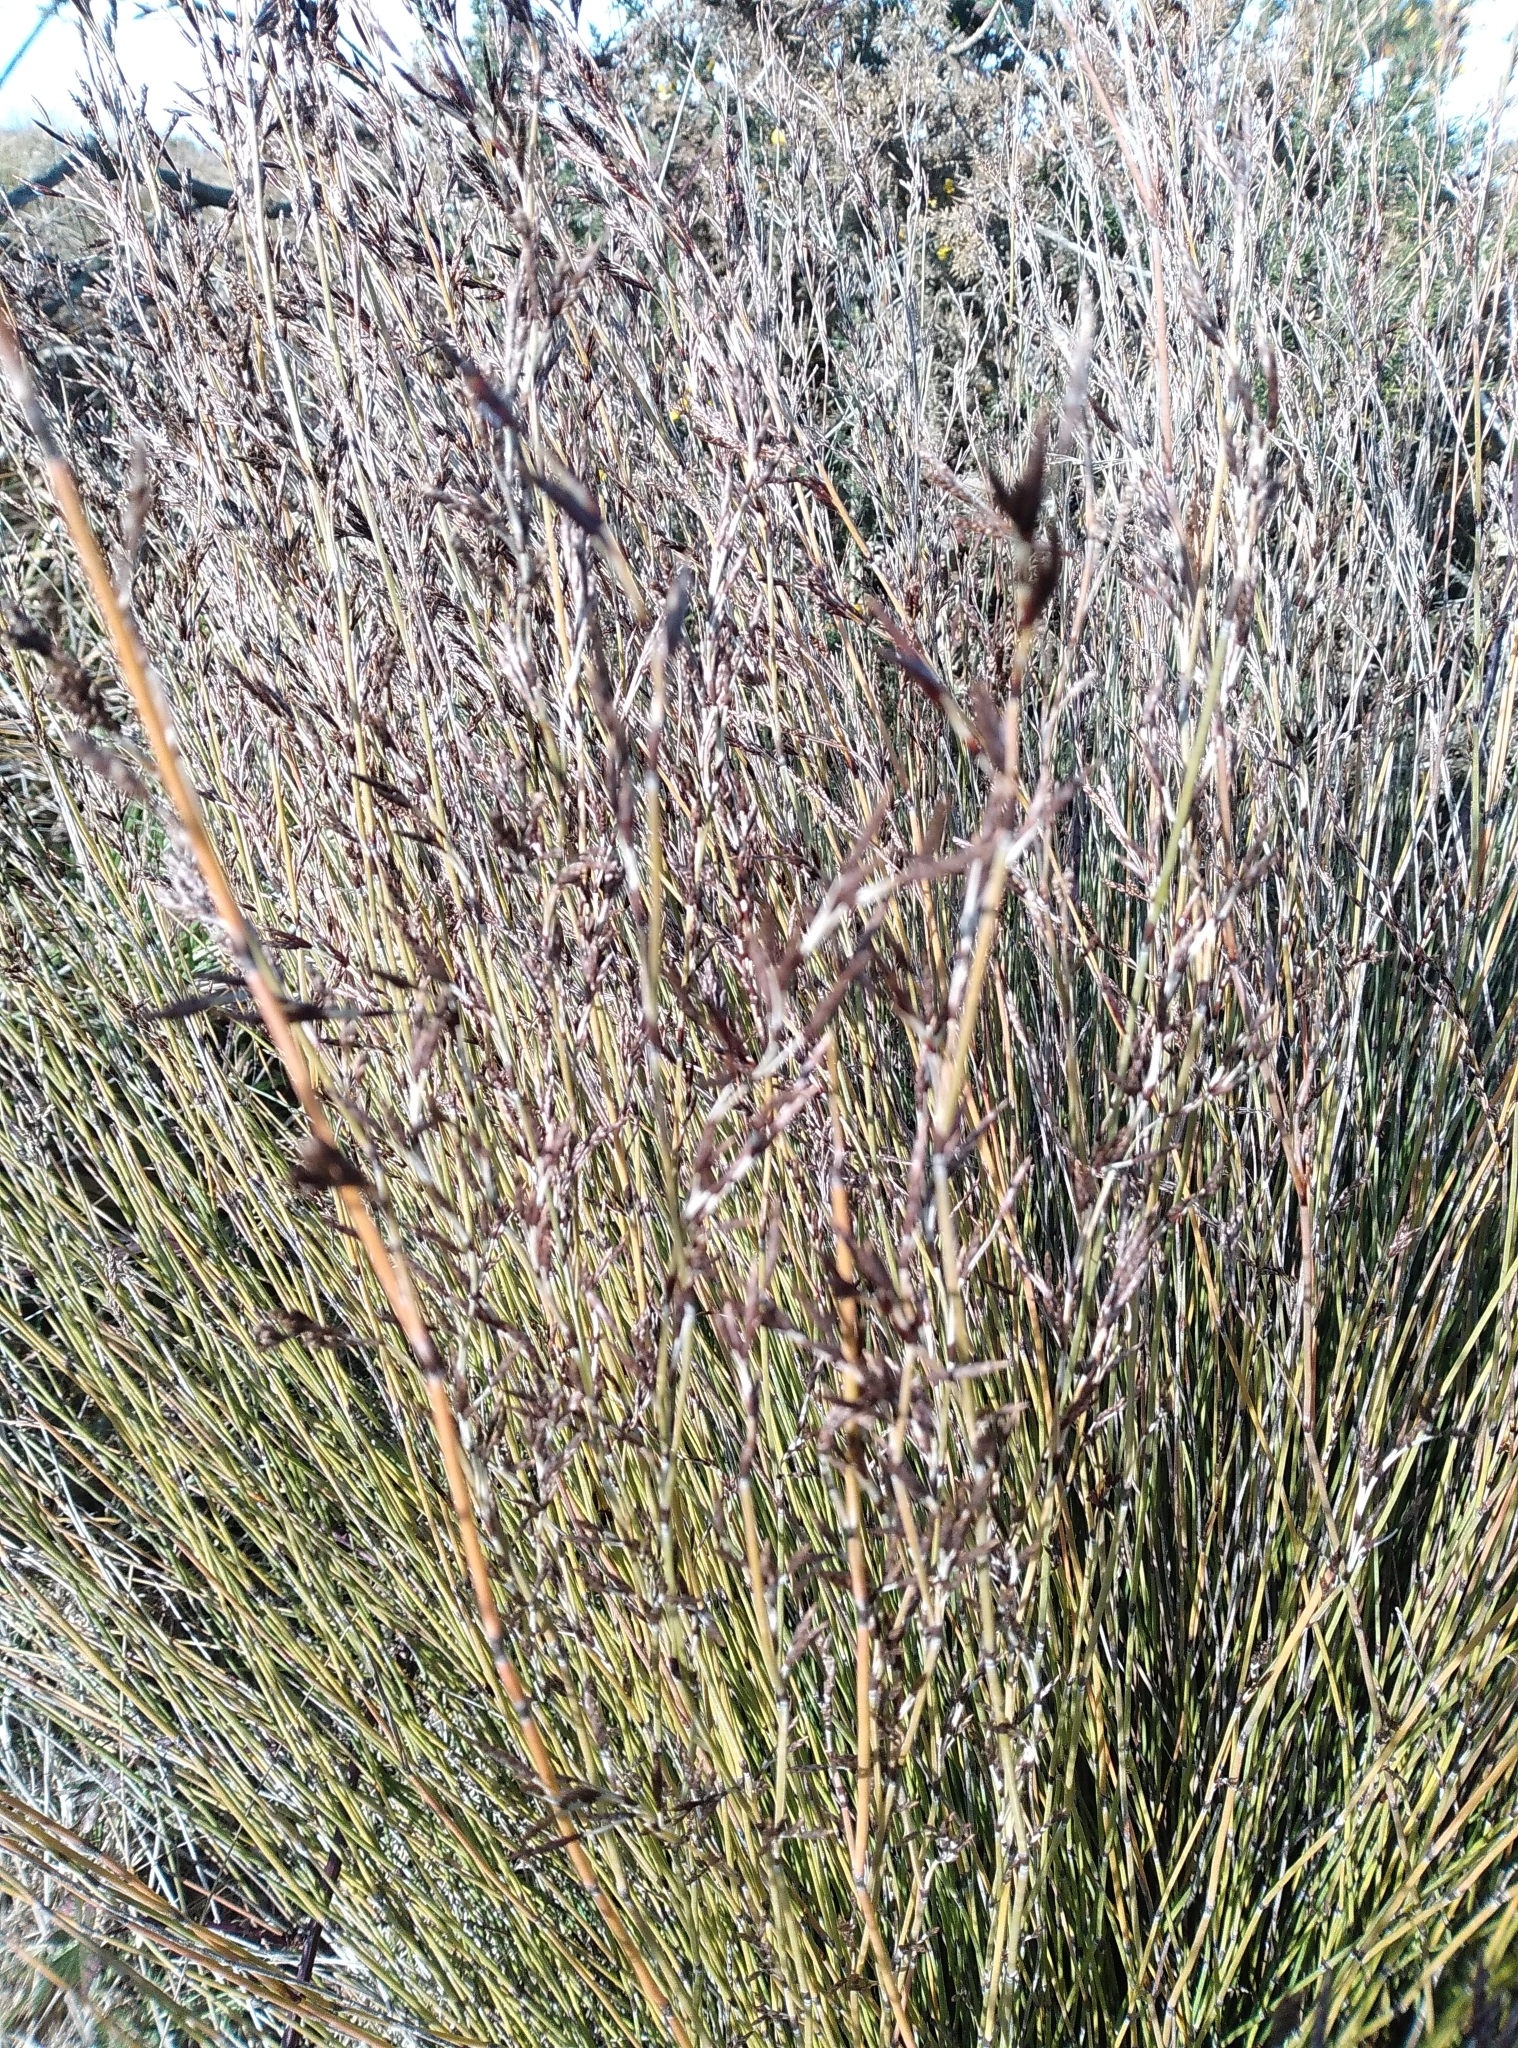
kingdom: Plantae
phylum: Tracheophyta
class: Liliopsida
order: Poales
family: Restionaceae
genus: Apodasmia
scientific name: Apodasmia similis
